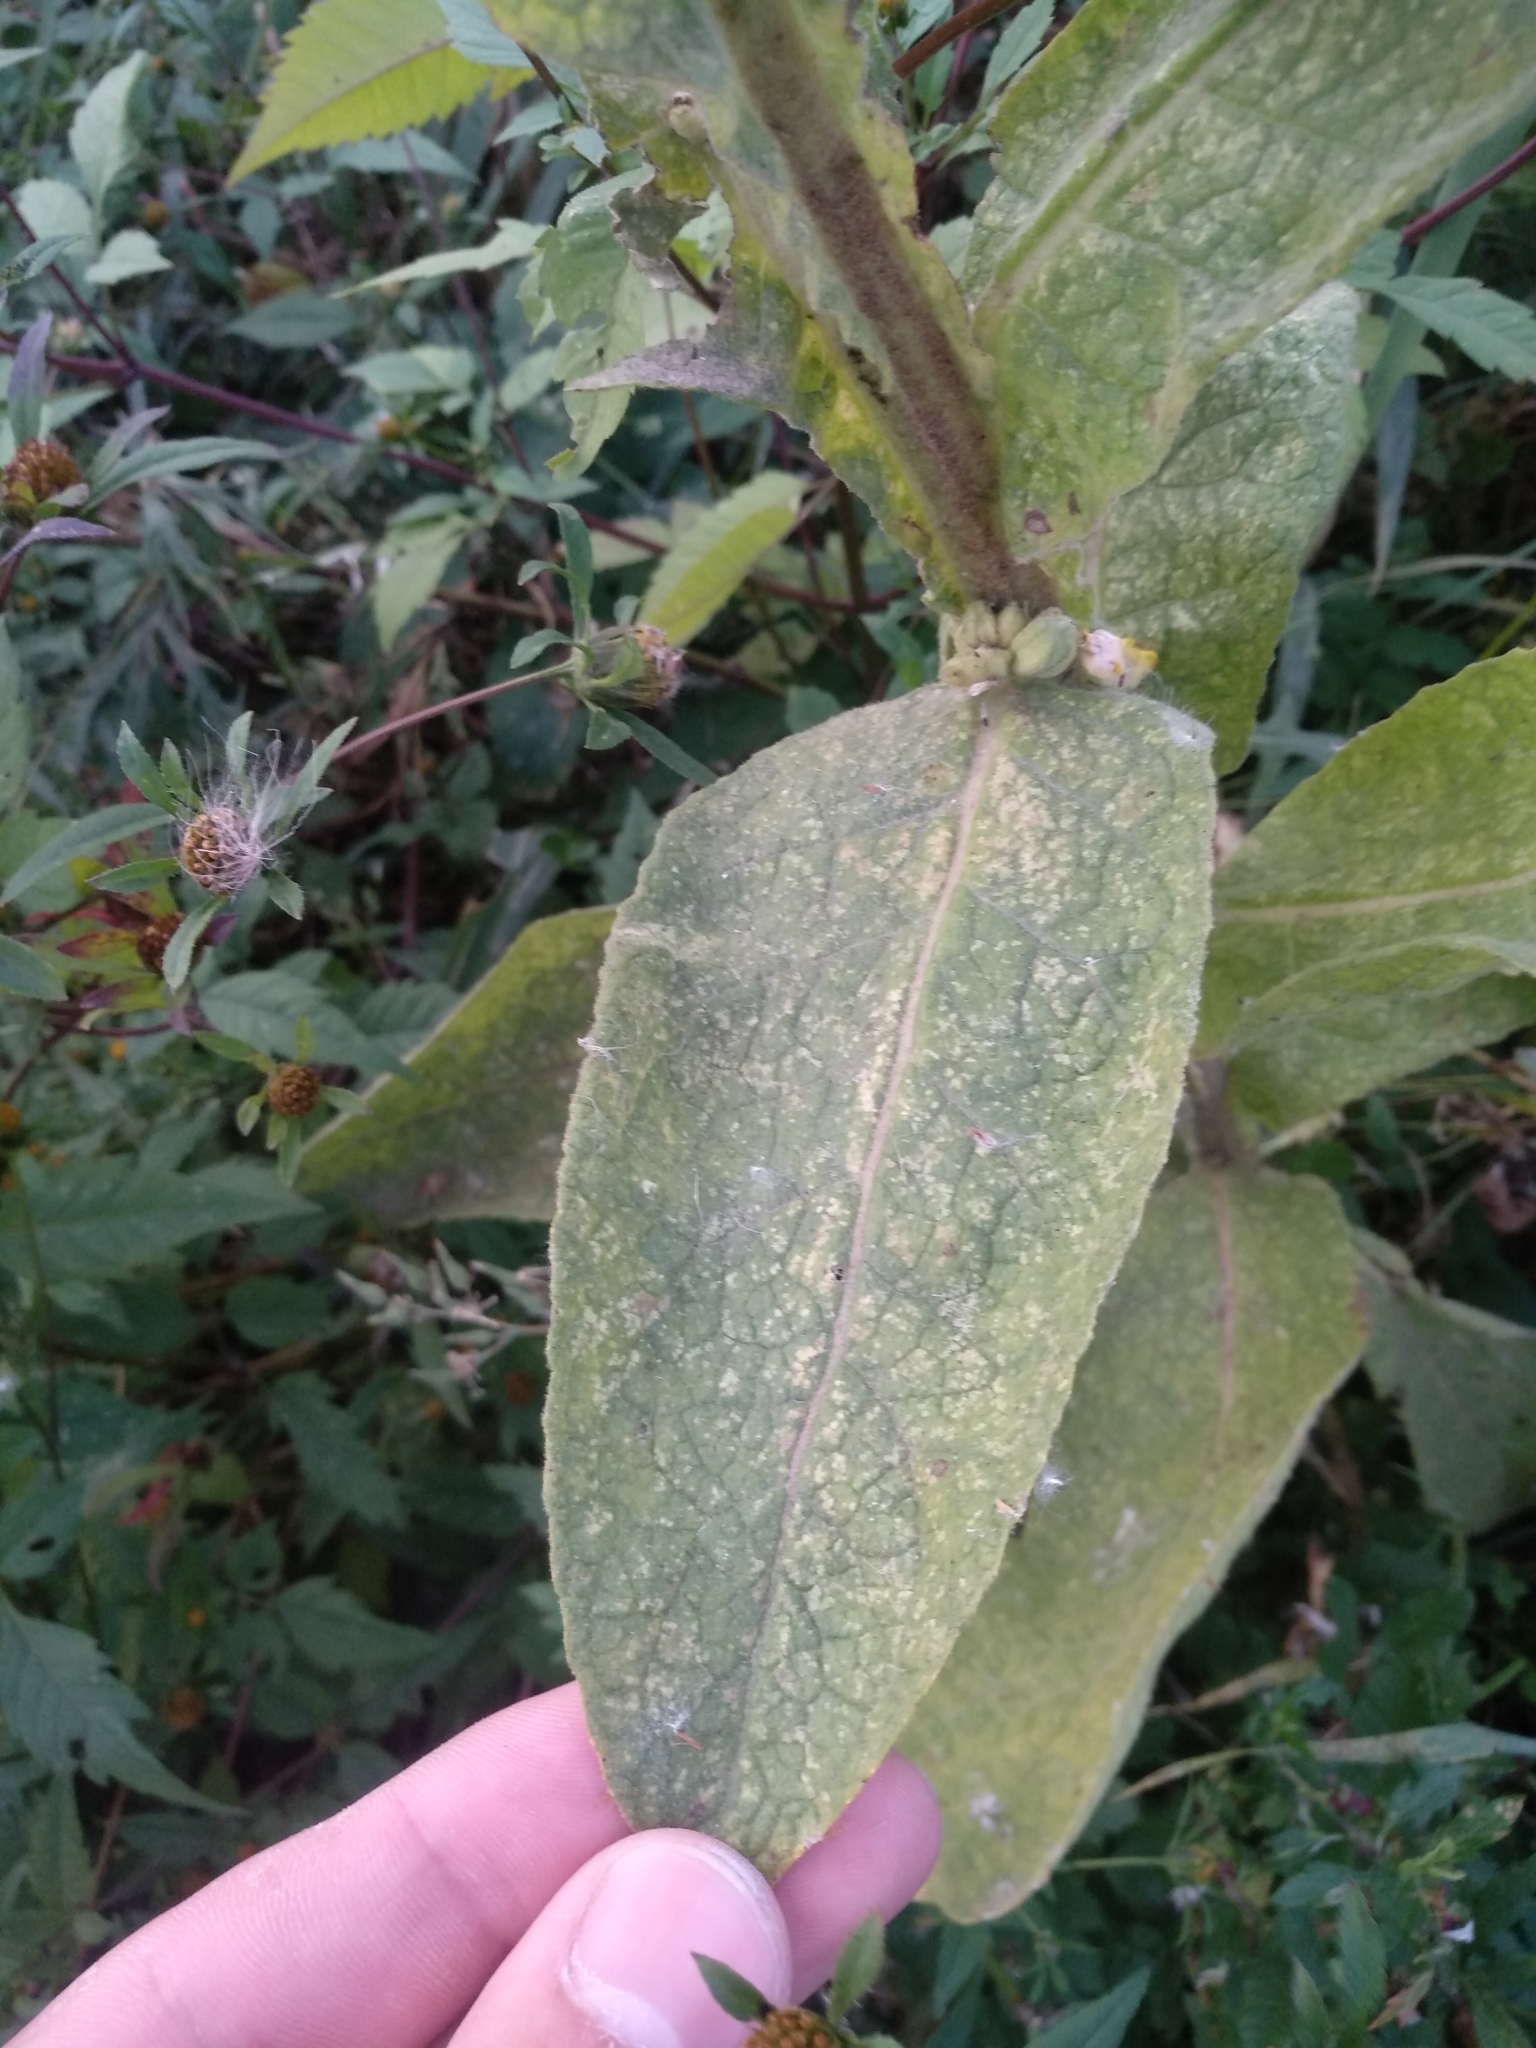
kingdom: Plantae
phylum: Tracheophyta
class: Magnoliopsida
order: Lamiales
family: Scrophulariaceae
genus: Verbascum
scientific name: Verbascum thapsus
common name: Common mullein
